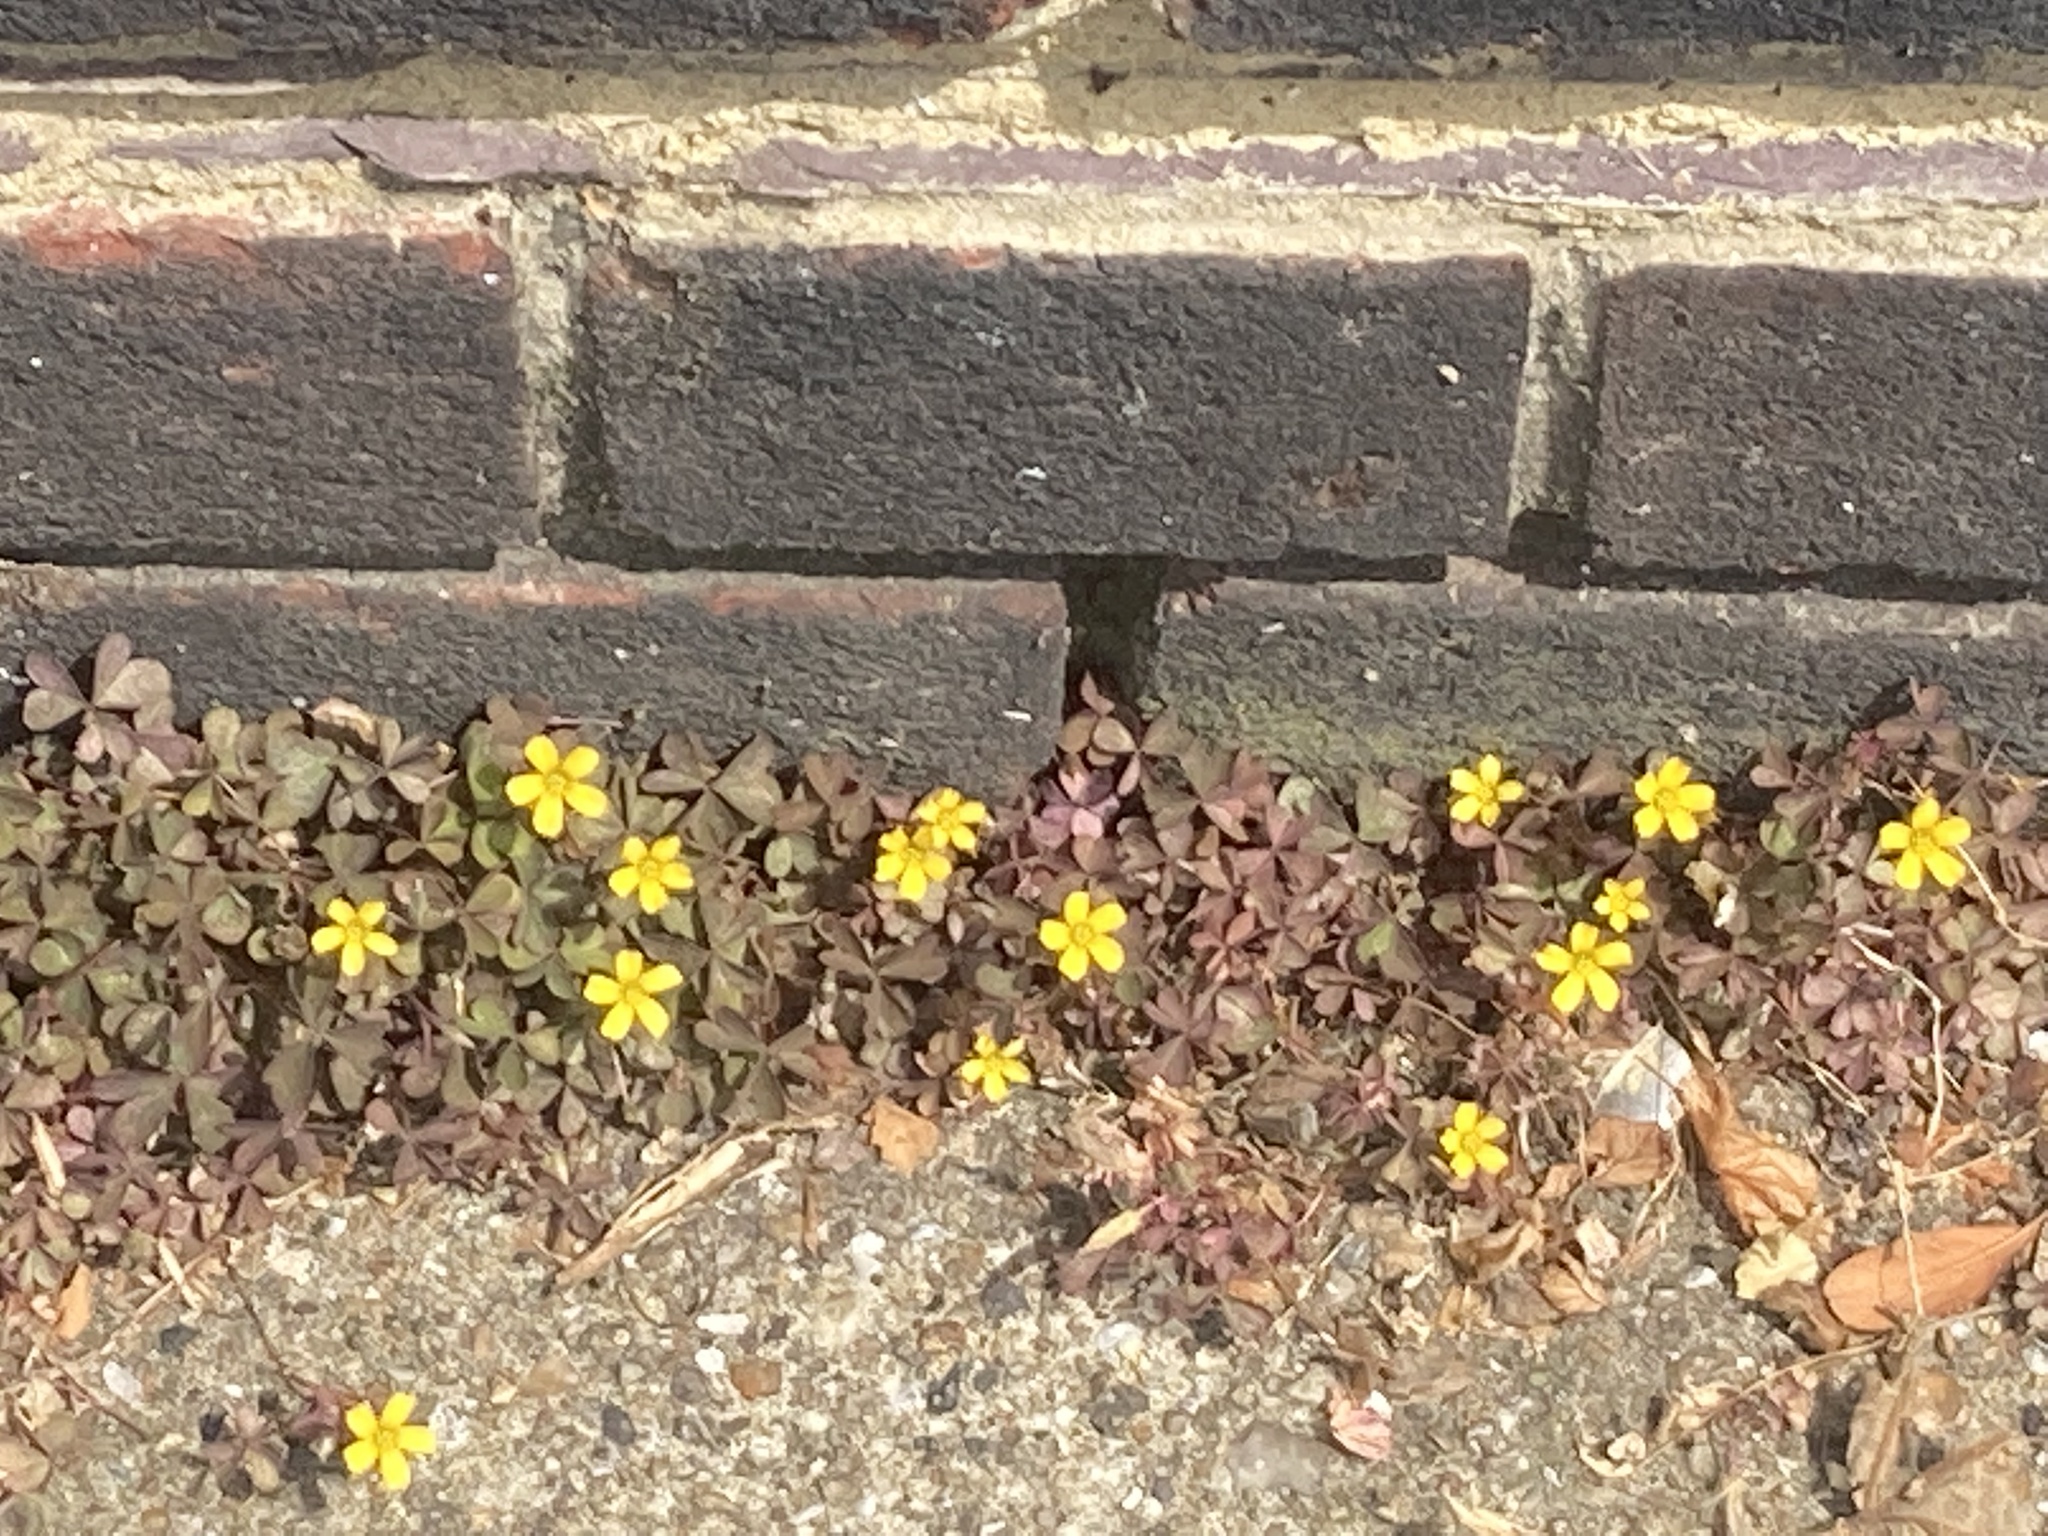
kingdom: Plantae
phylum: Tracheophyta
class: Magnoliopsida
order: Oxalidales
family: Oxalidaceae
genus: Oxalis
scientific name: Oxalis corniculata
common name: Procumbent yellow-sorrel
